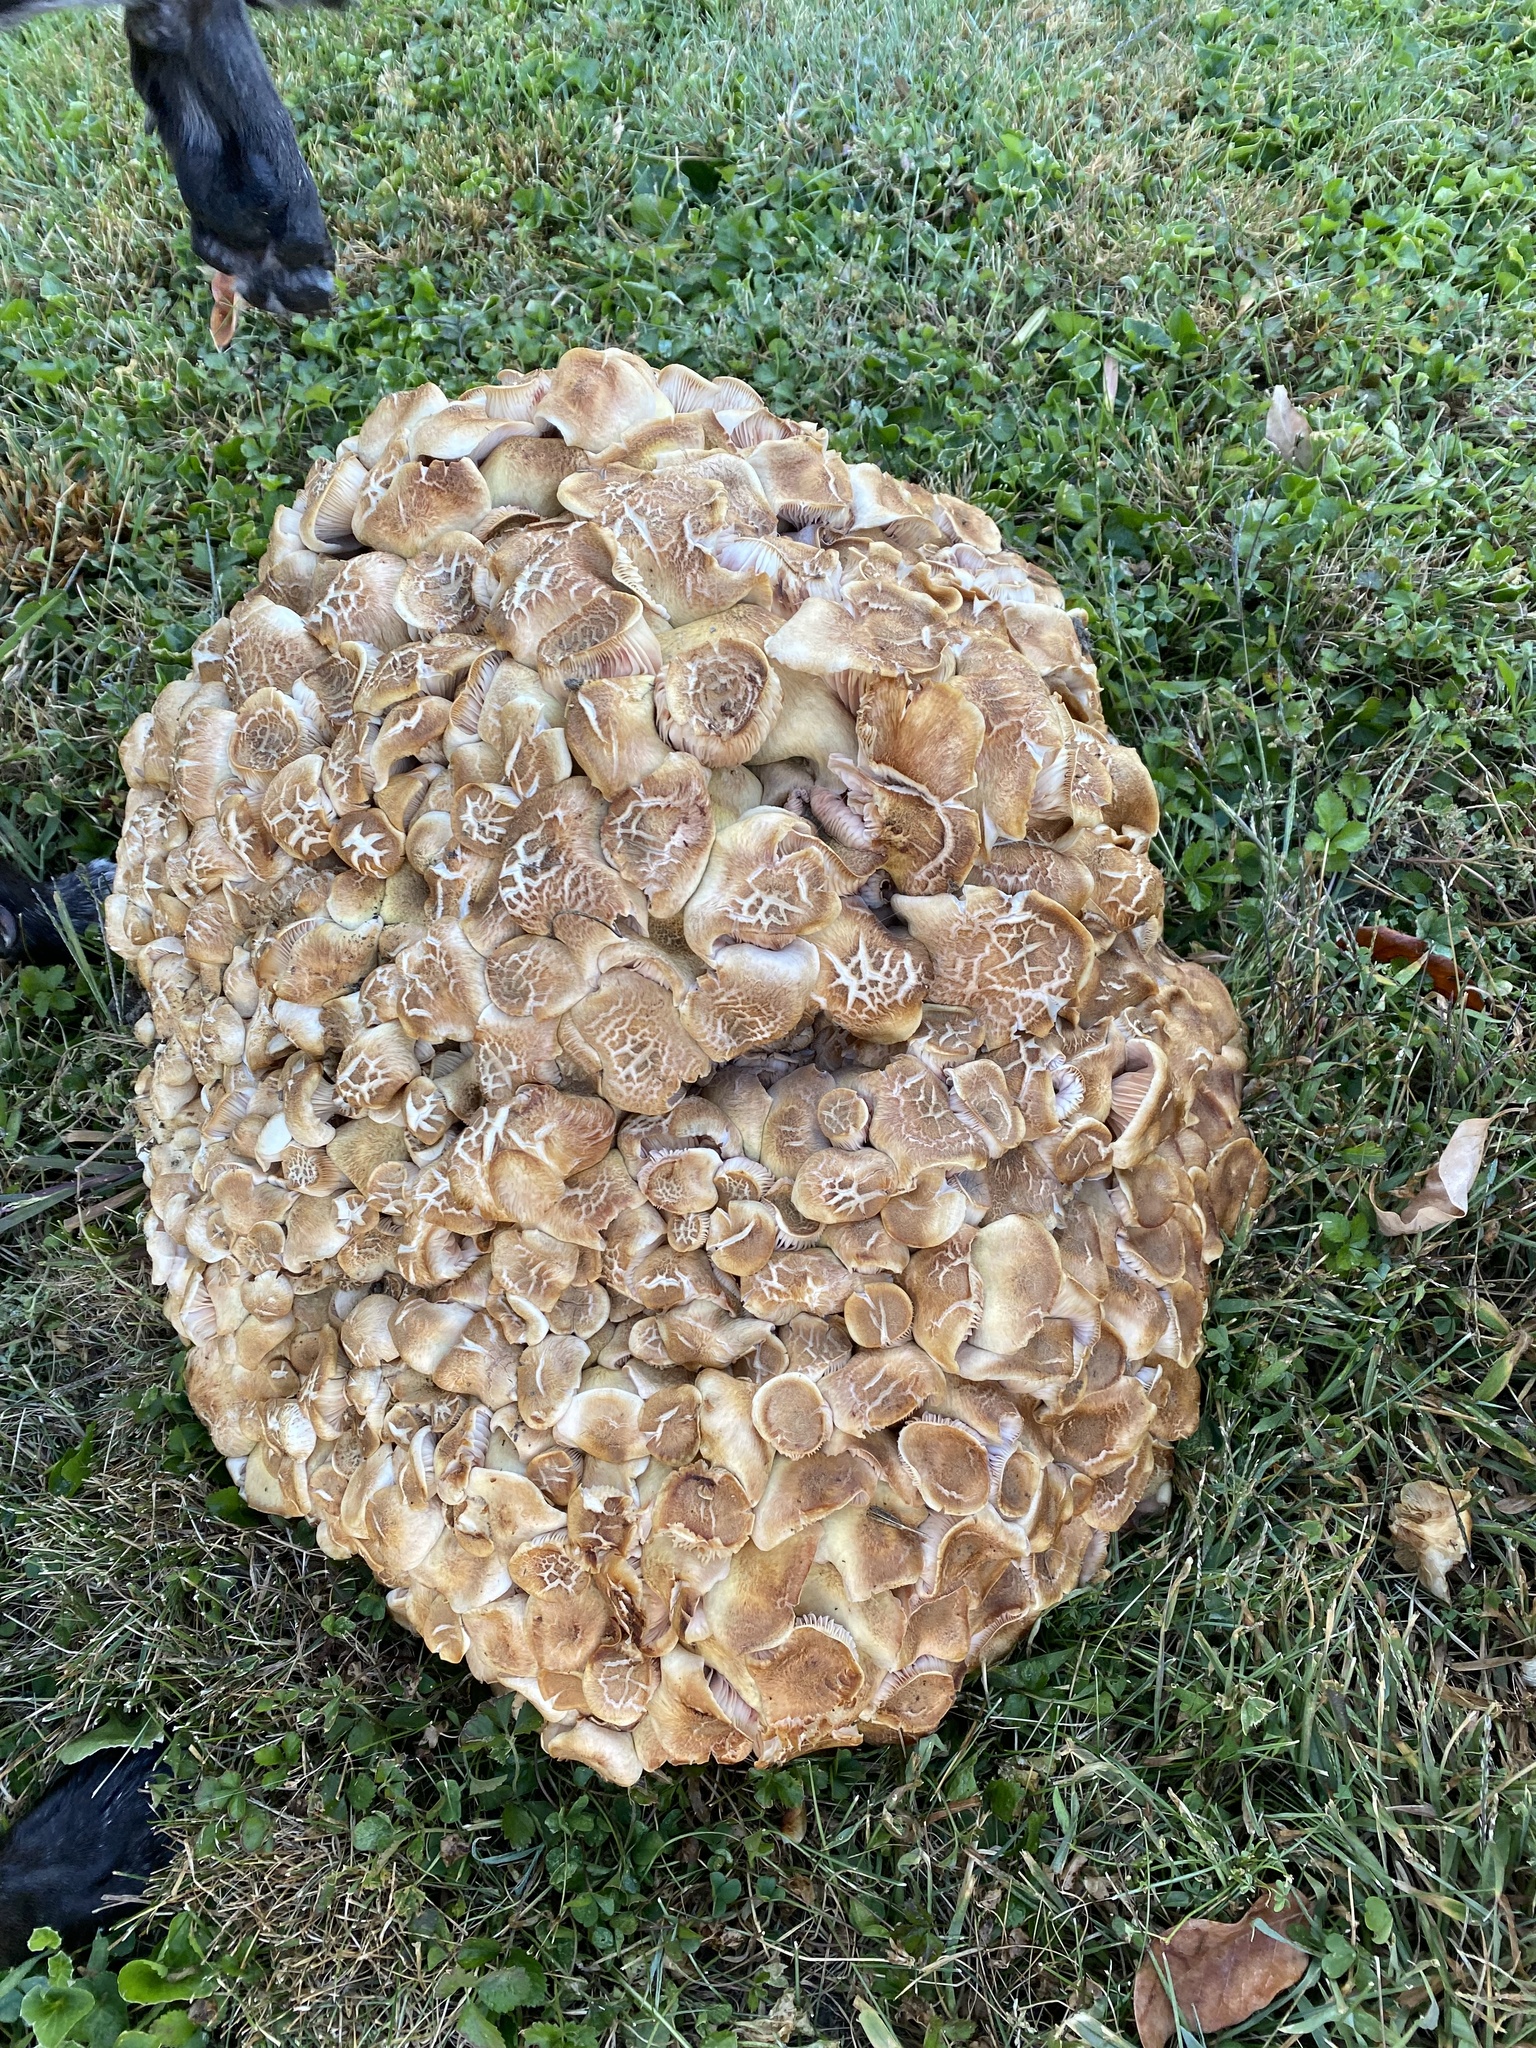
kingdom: Fungi
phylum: Basidiomycota
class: Agaricomycetes
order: Agaricales
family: Physalacriaceae
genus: Desarmillaria
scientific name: Desarmillaria caespitosa
